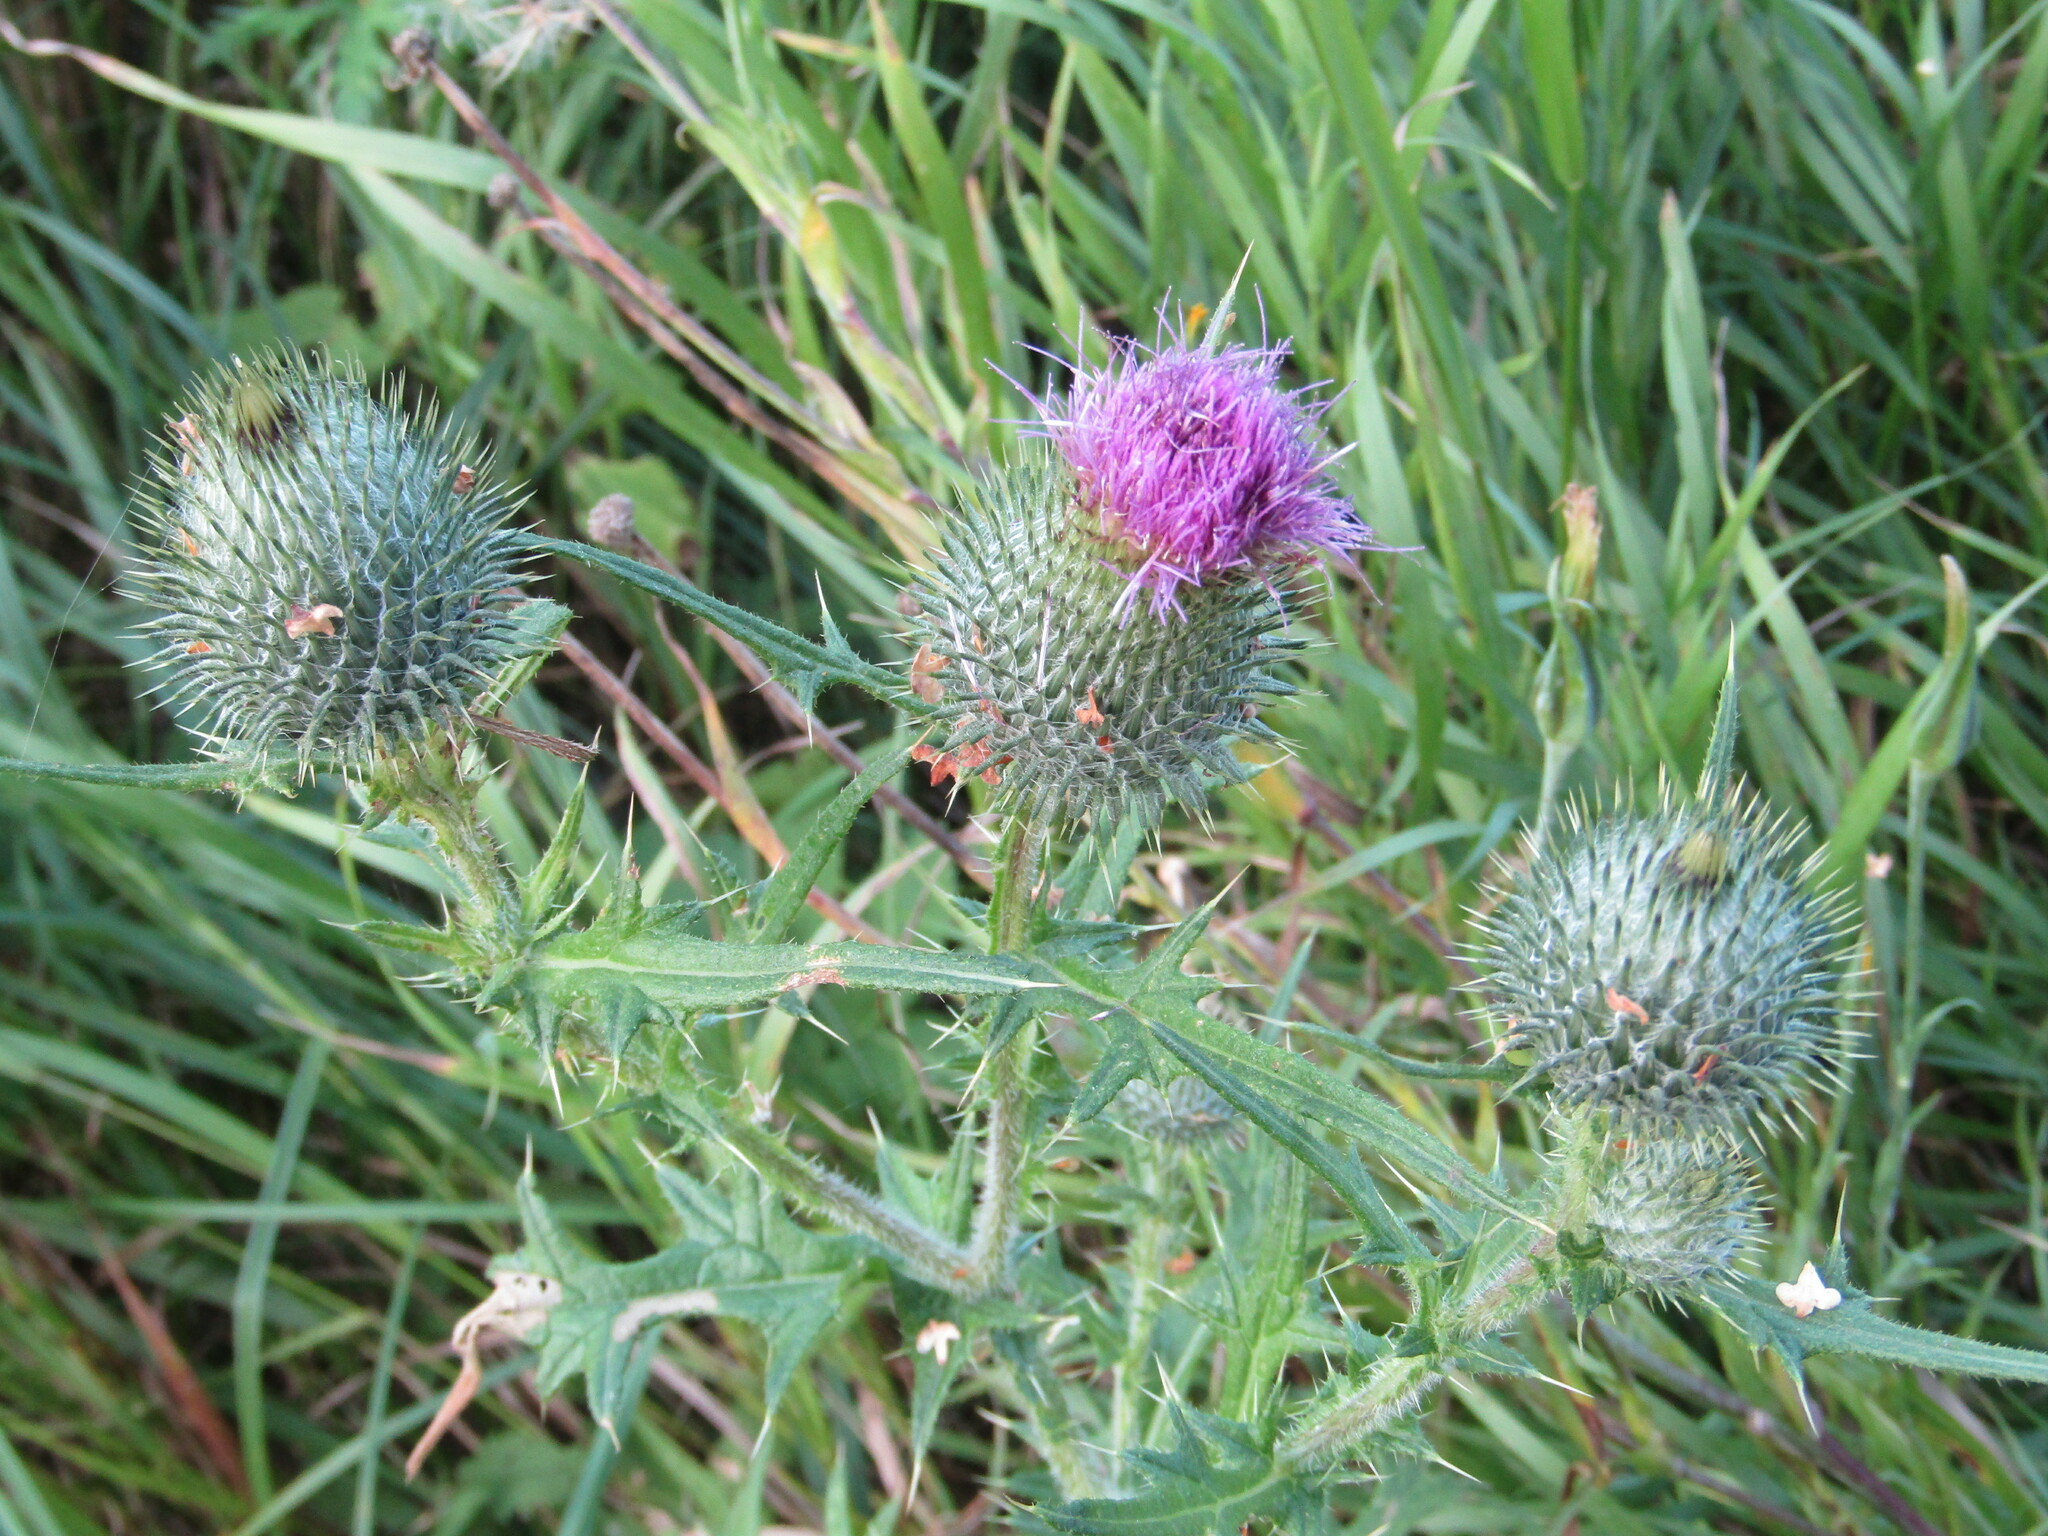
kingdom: Plantae
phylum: Tracheophyta
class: Magnoliopsida
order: Asterales
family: Asteraceae
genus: Cirsium
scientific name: Cirsium vulgare
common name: Bull thistle
